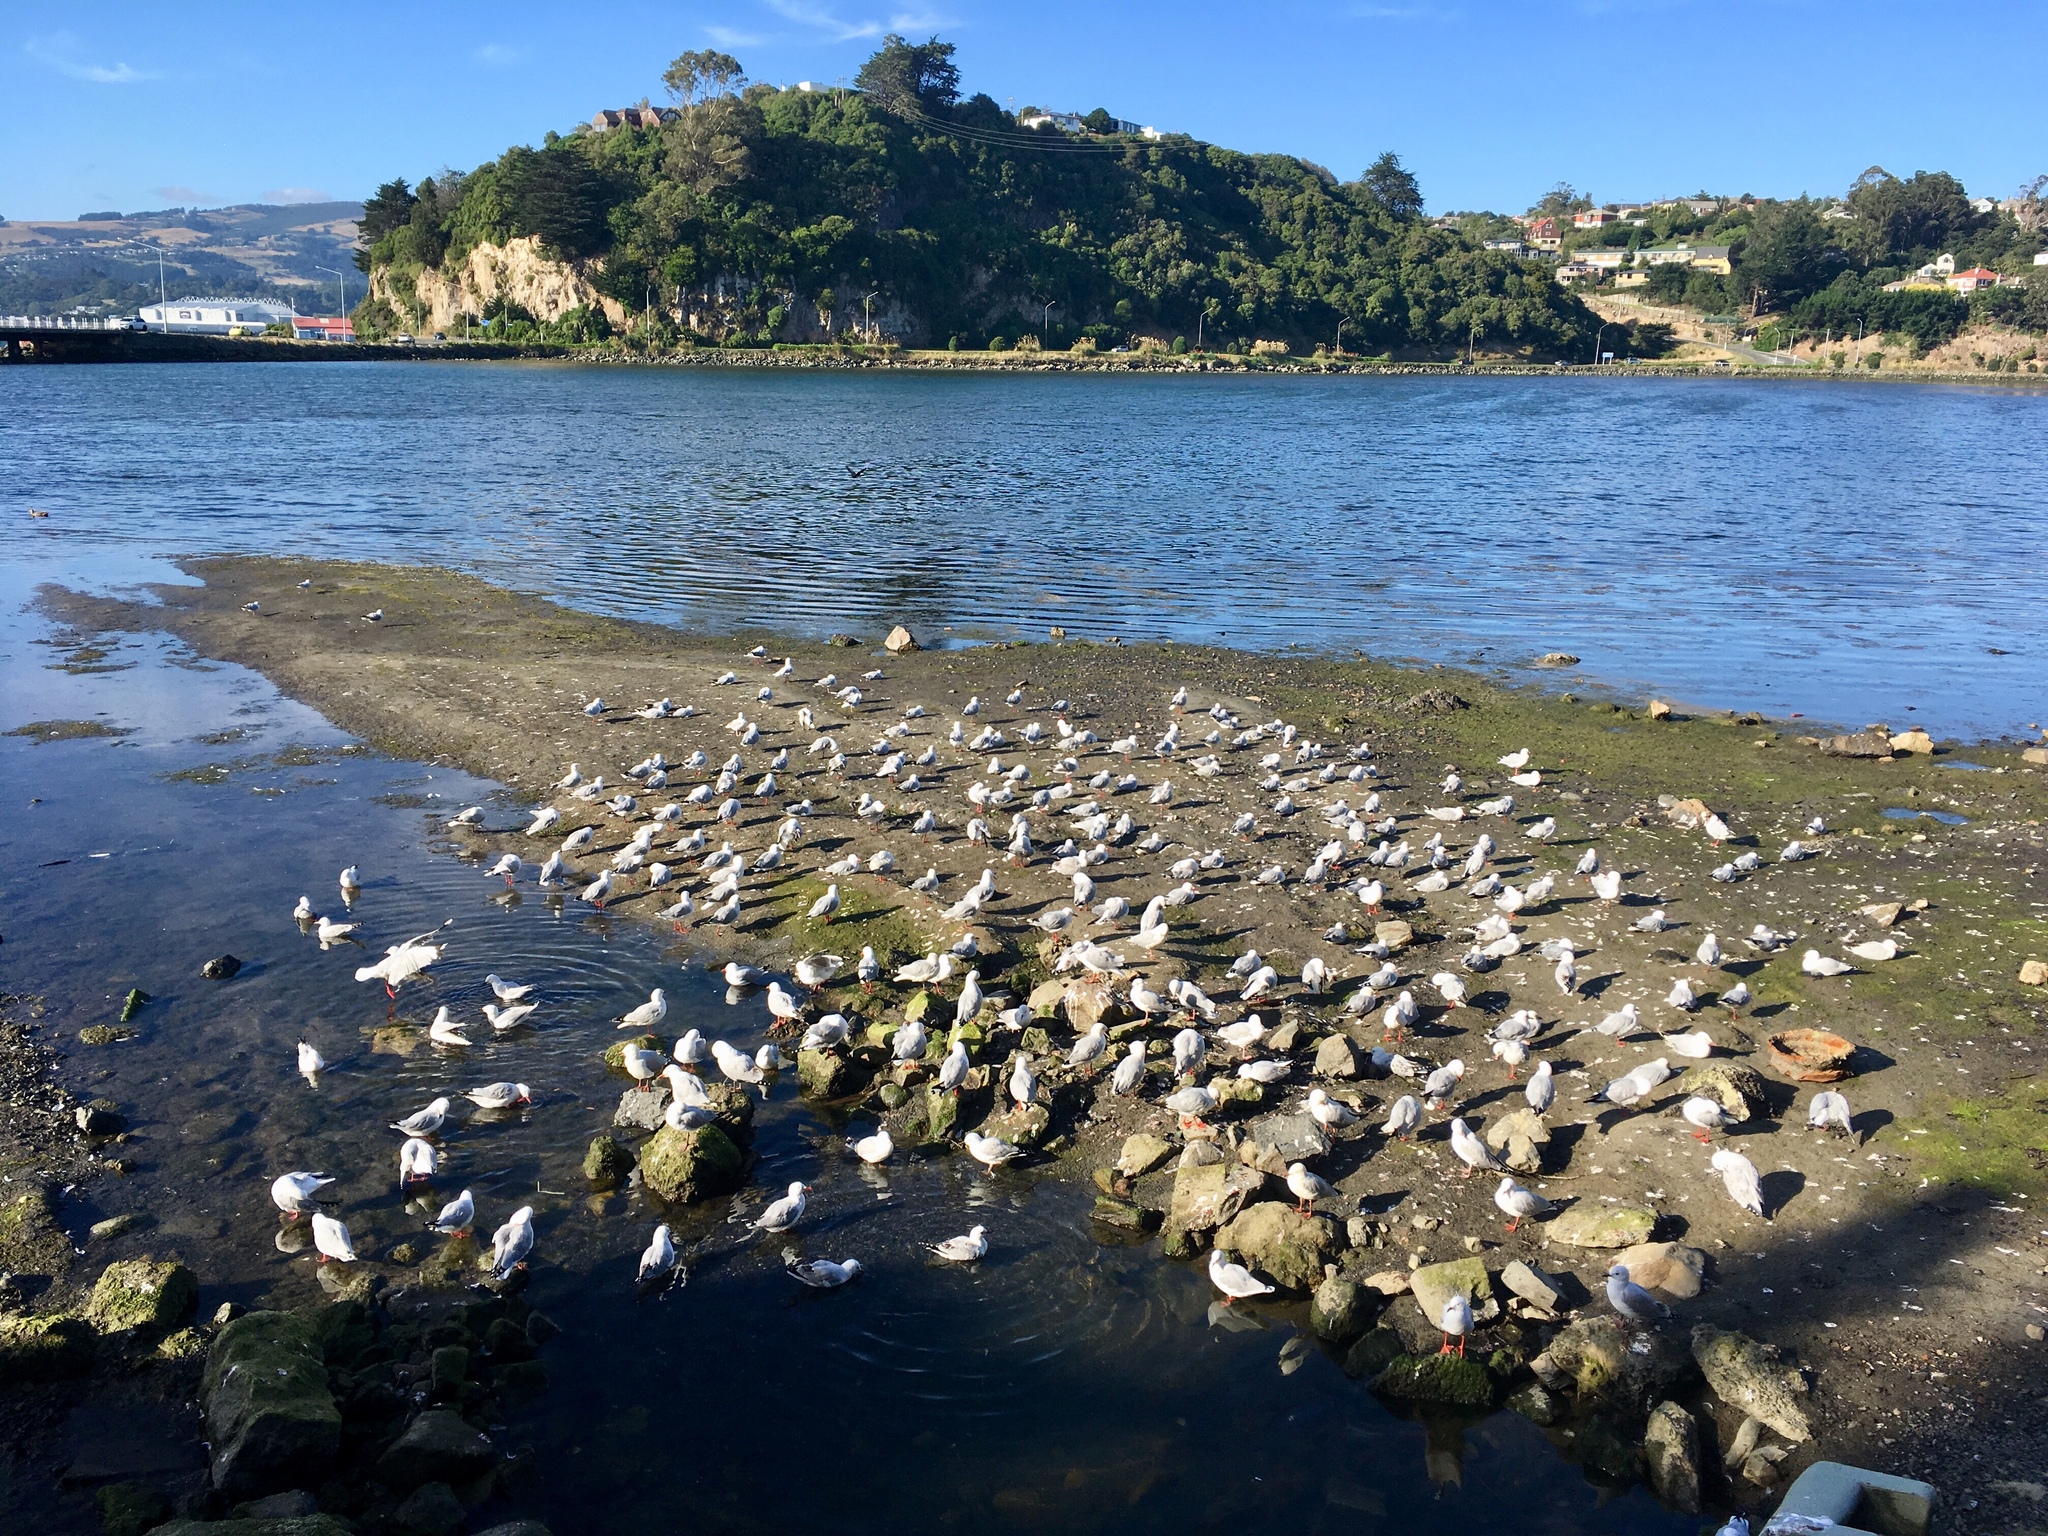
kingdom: Animalia
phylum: Chordata
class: Aves
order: Charadriiformes
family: Laridae
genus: Chroicocephalus
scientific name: Chroicocephalus novaehollandiae
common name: Silver gull
